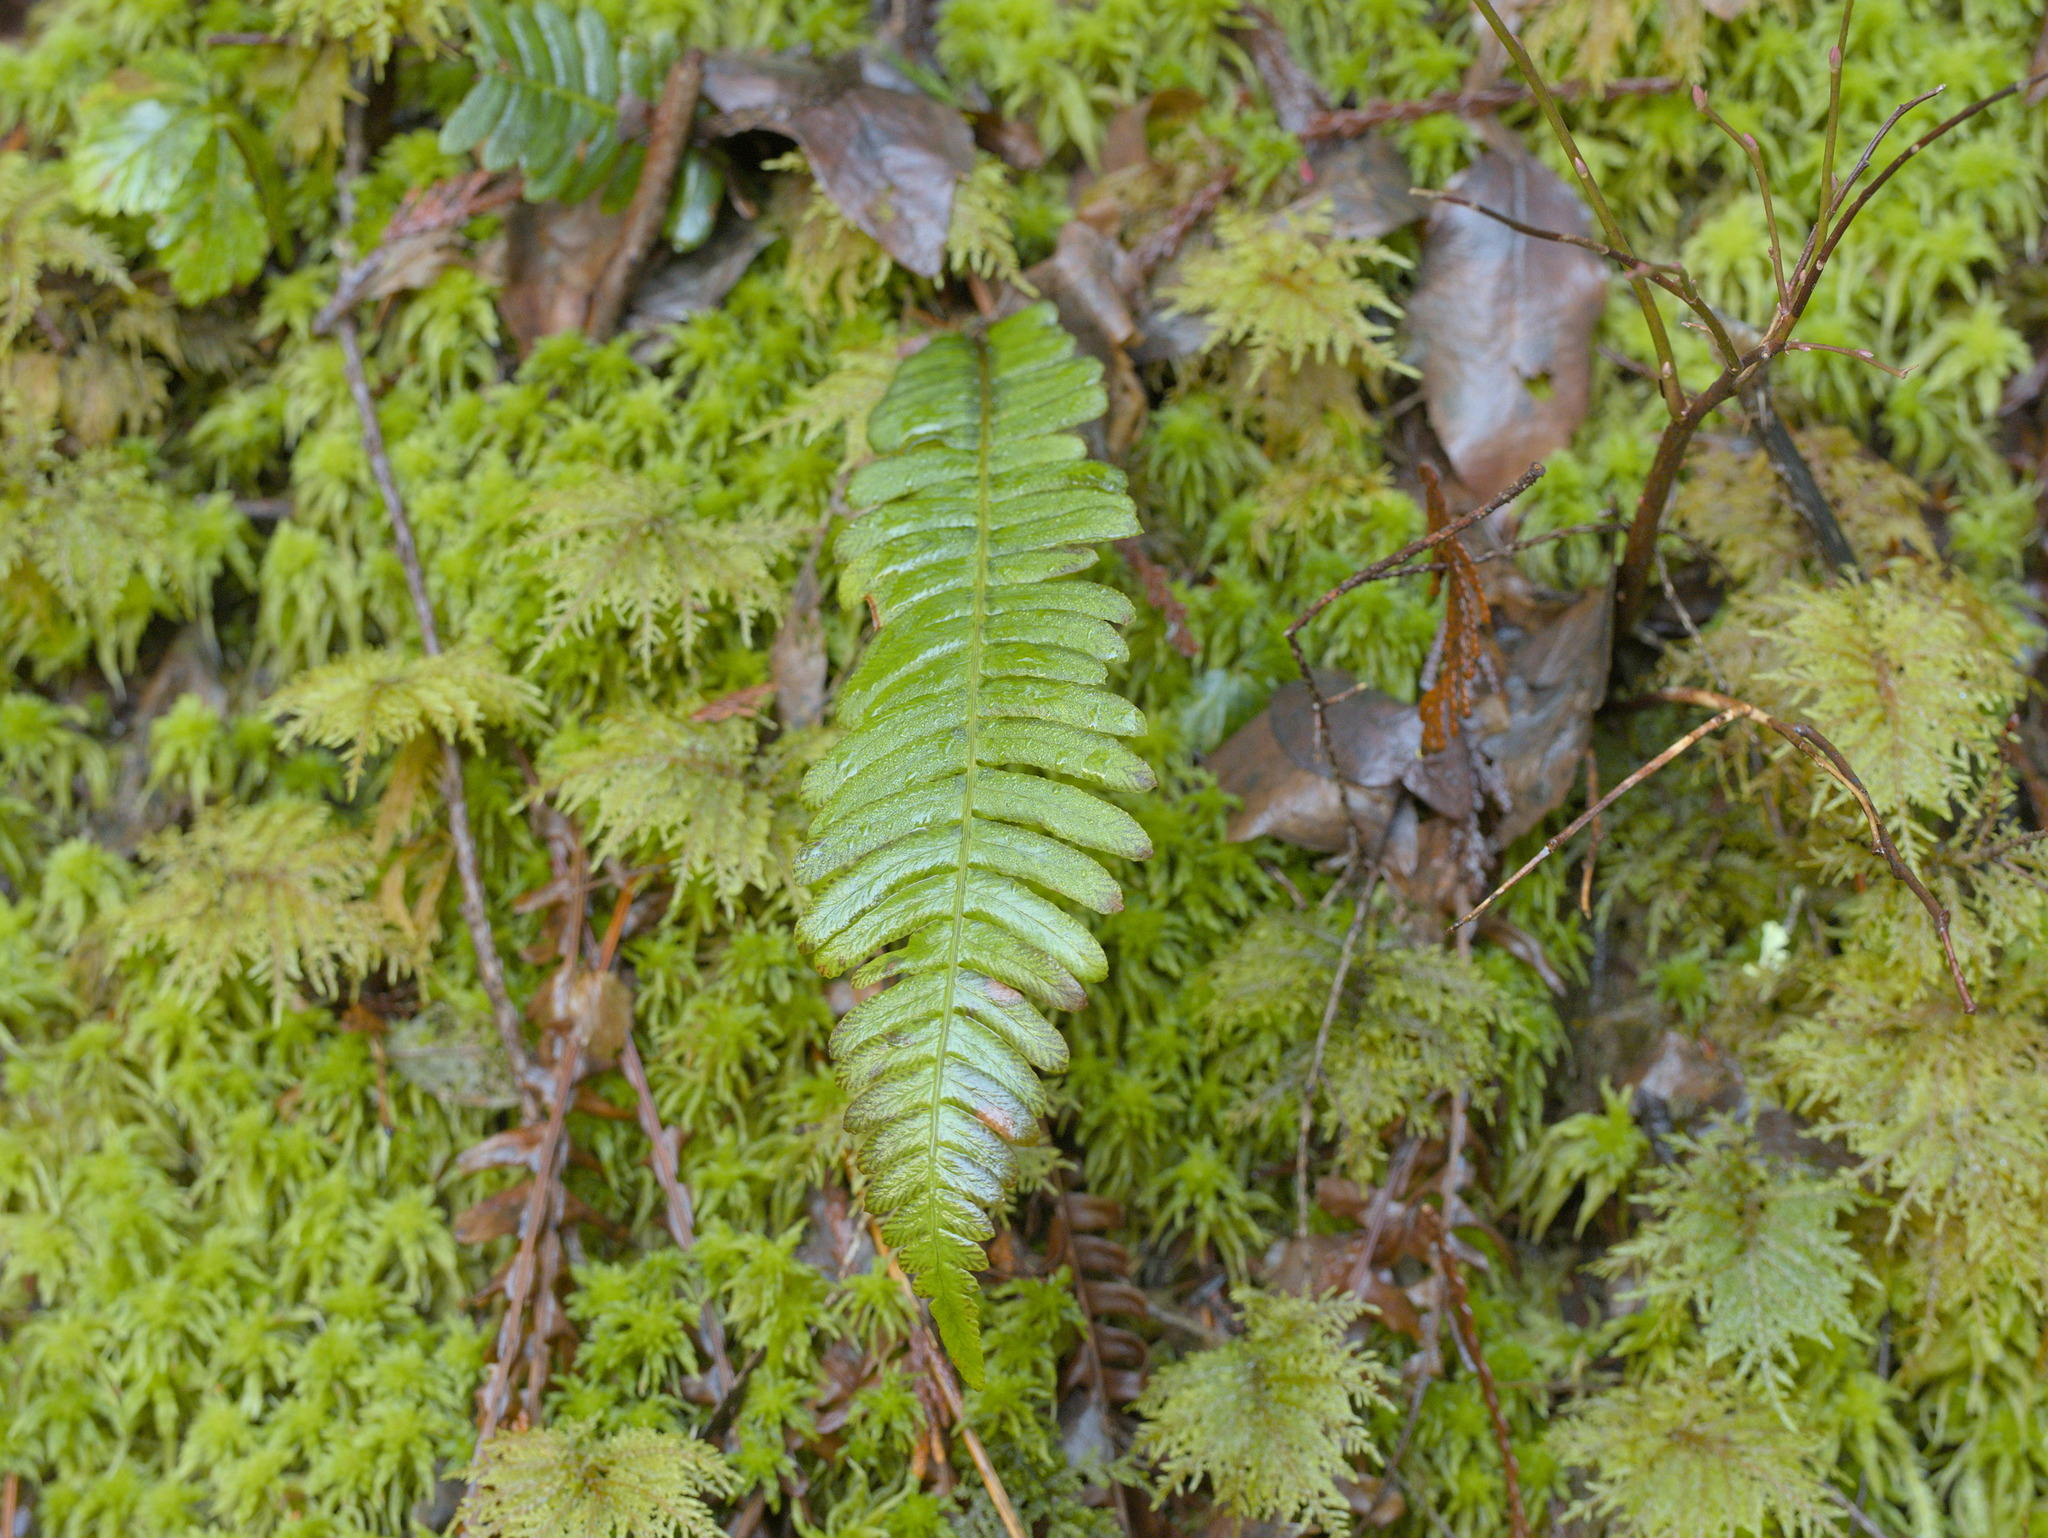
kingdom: Plantae
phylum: Tracheophyta
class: Polypodiopsida
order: Polypodiales
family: Blechnaceae
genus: Struthiopteris
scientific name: Struthiopteris spicant
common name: Deer fern
